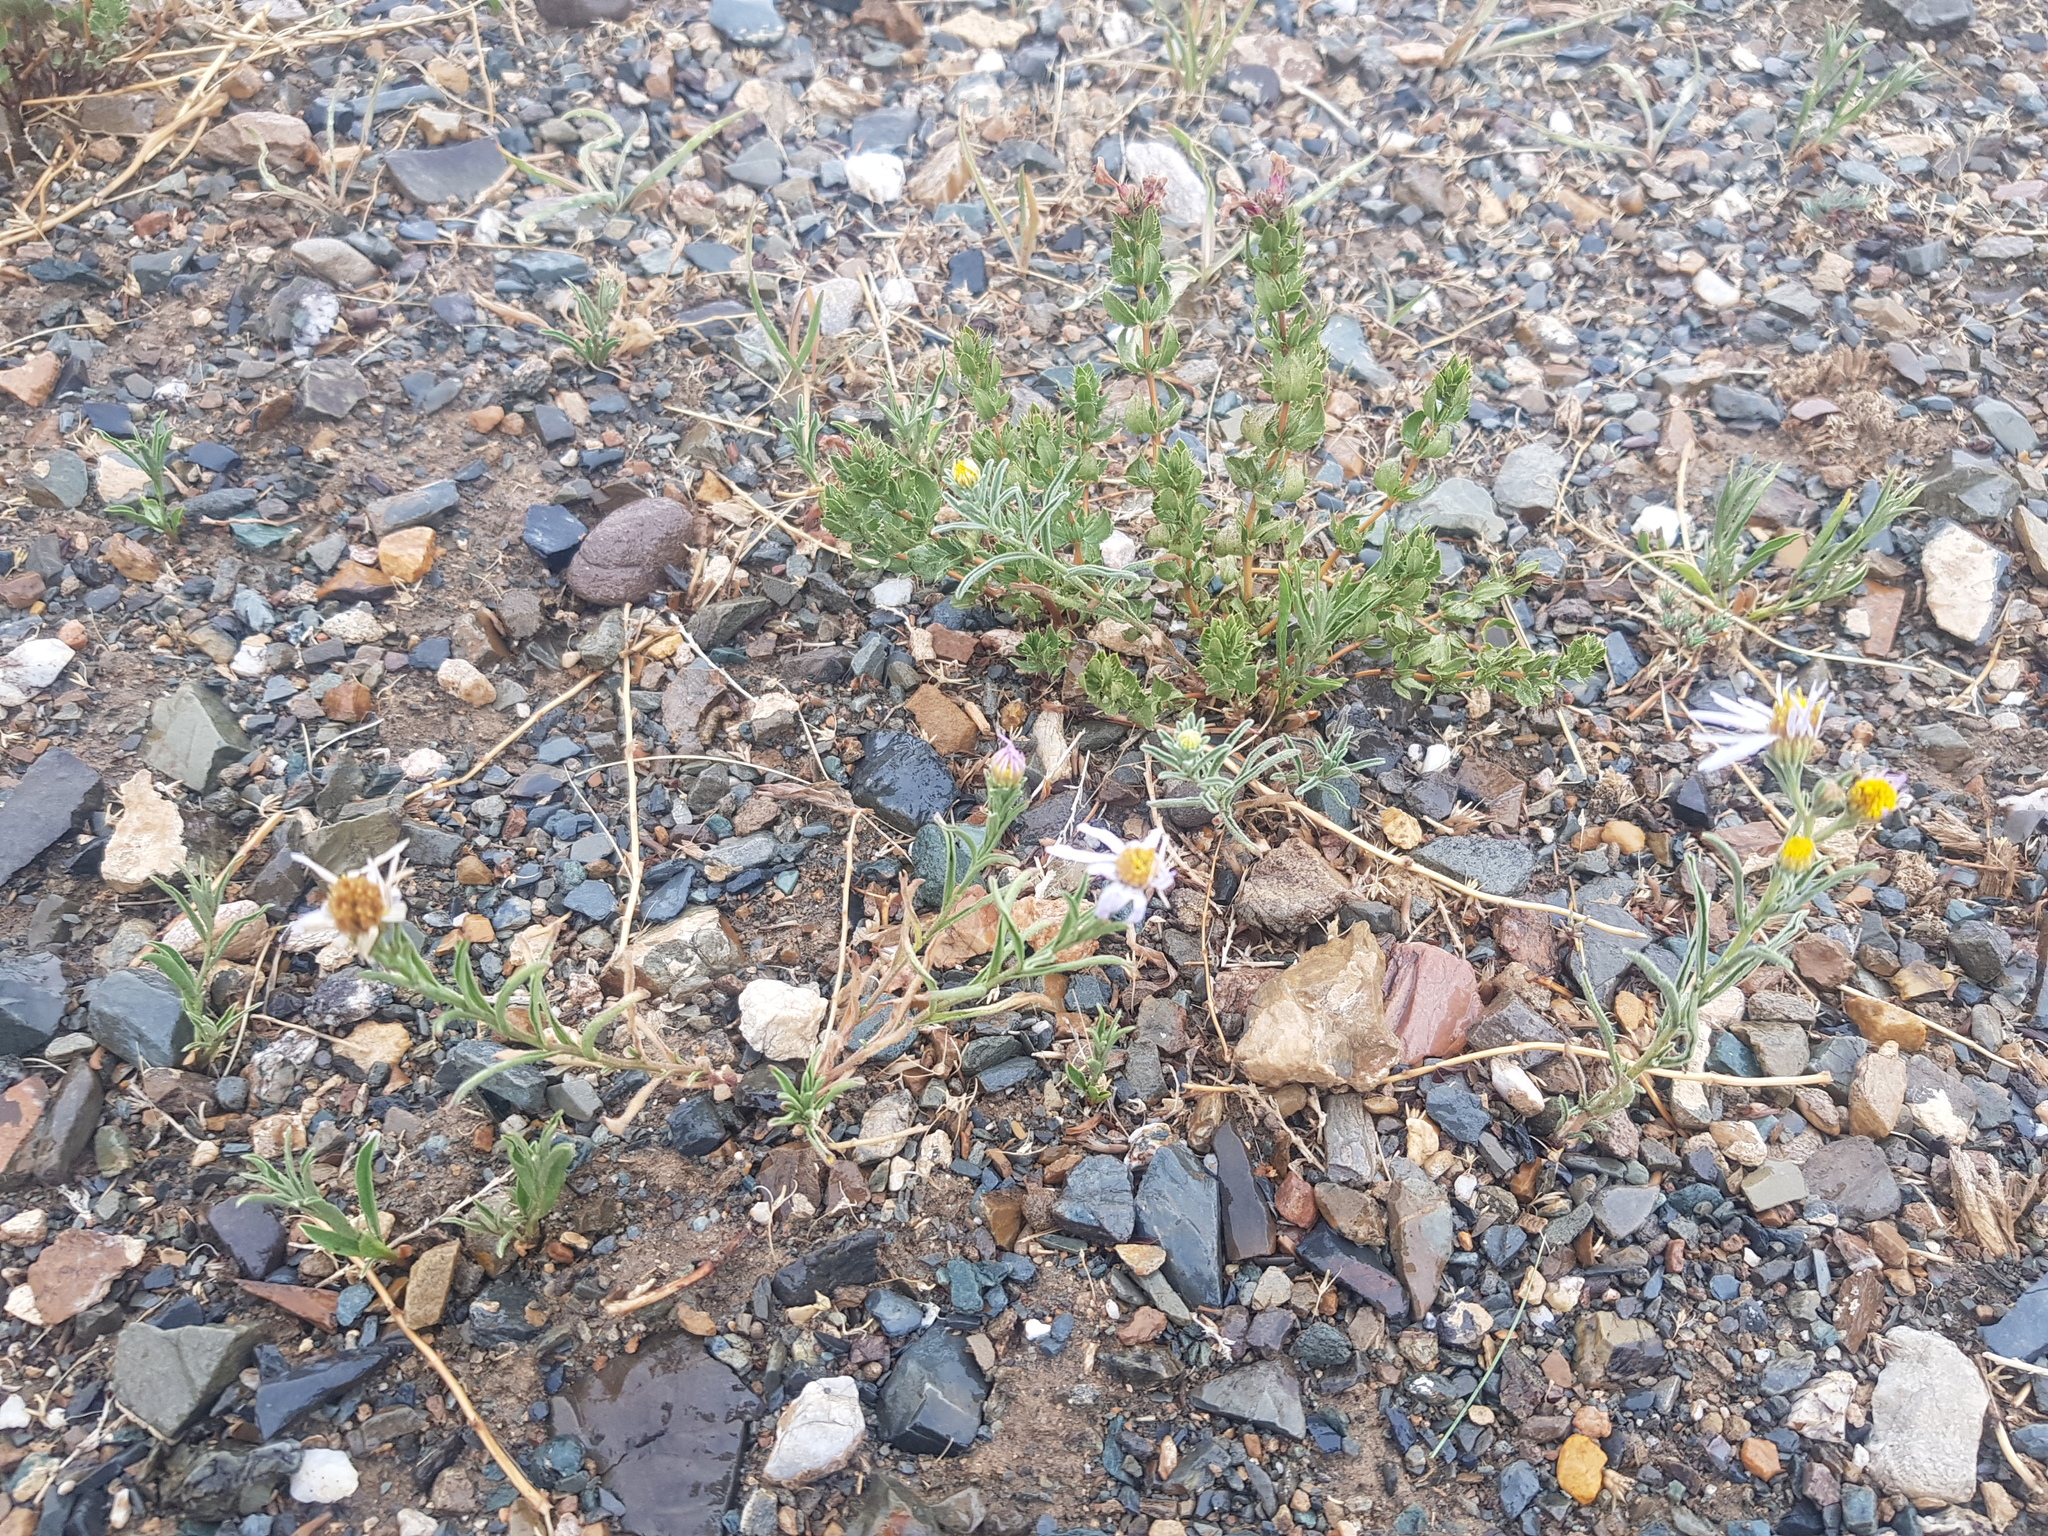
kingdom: Plantae
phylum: Tracheophyta
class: Magnoliopsida
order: Lamiales
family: Lamiaceae
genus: Lagochilus
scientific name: Lagochilus bungei
